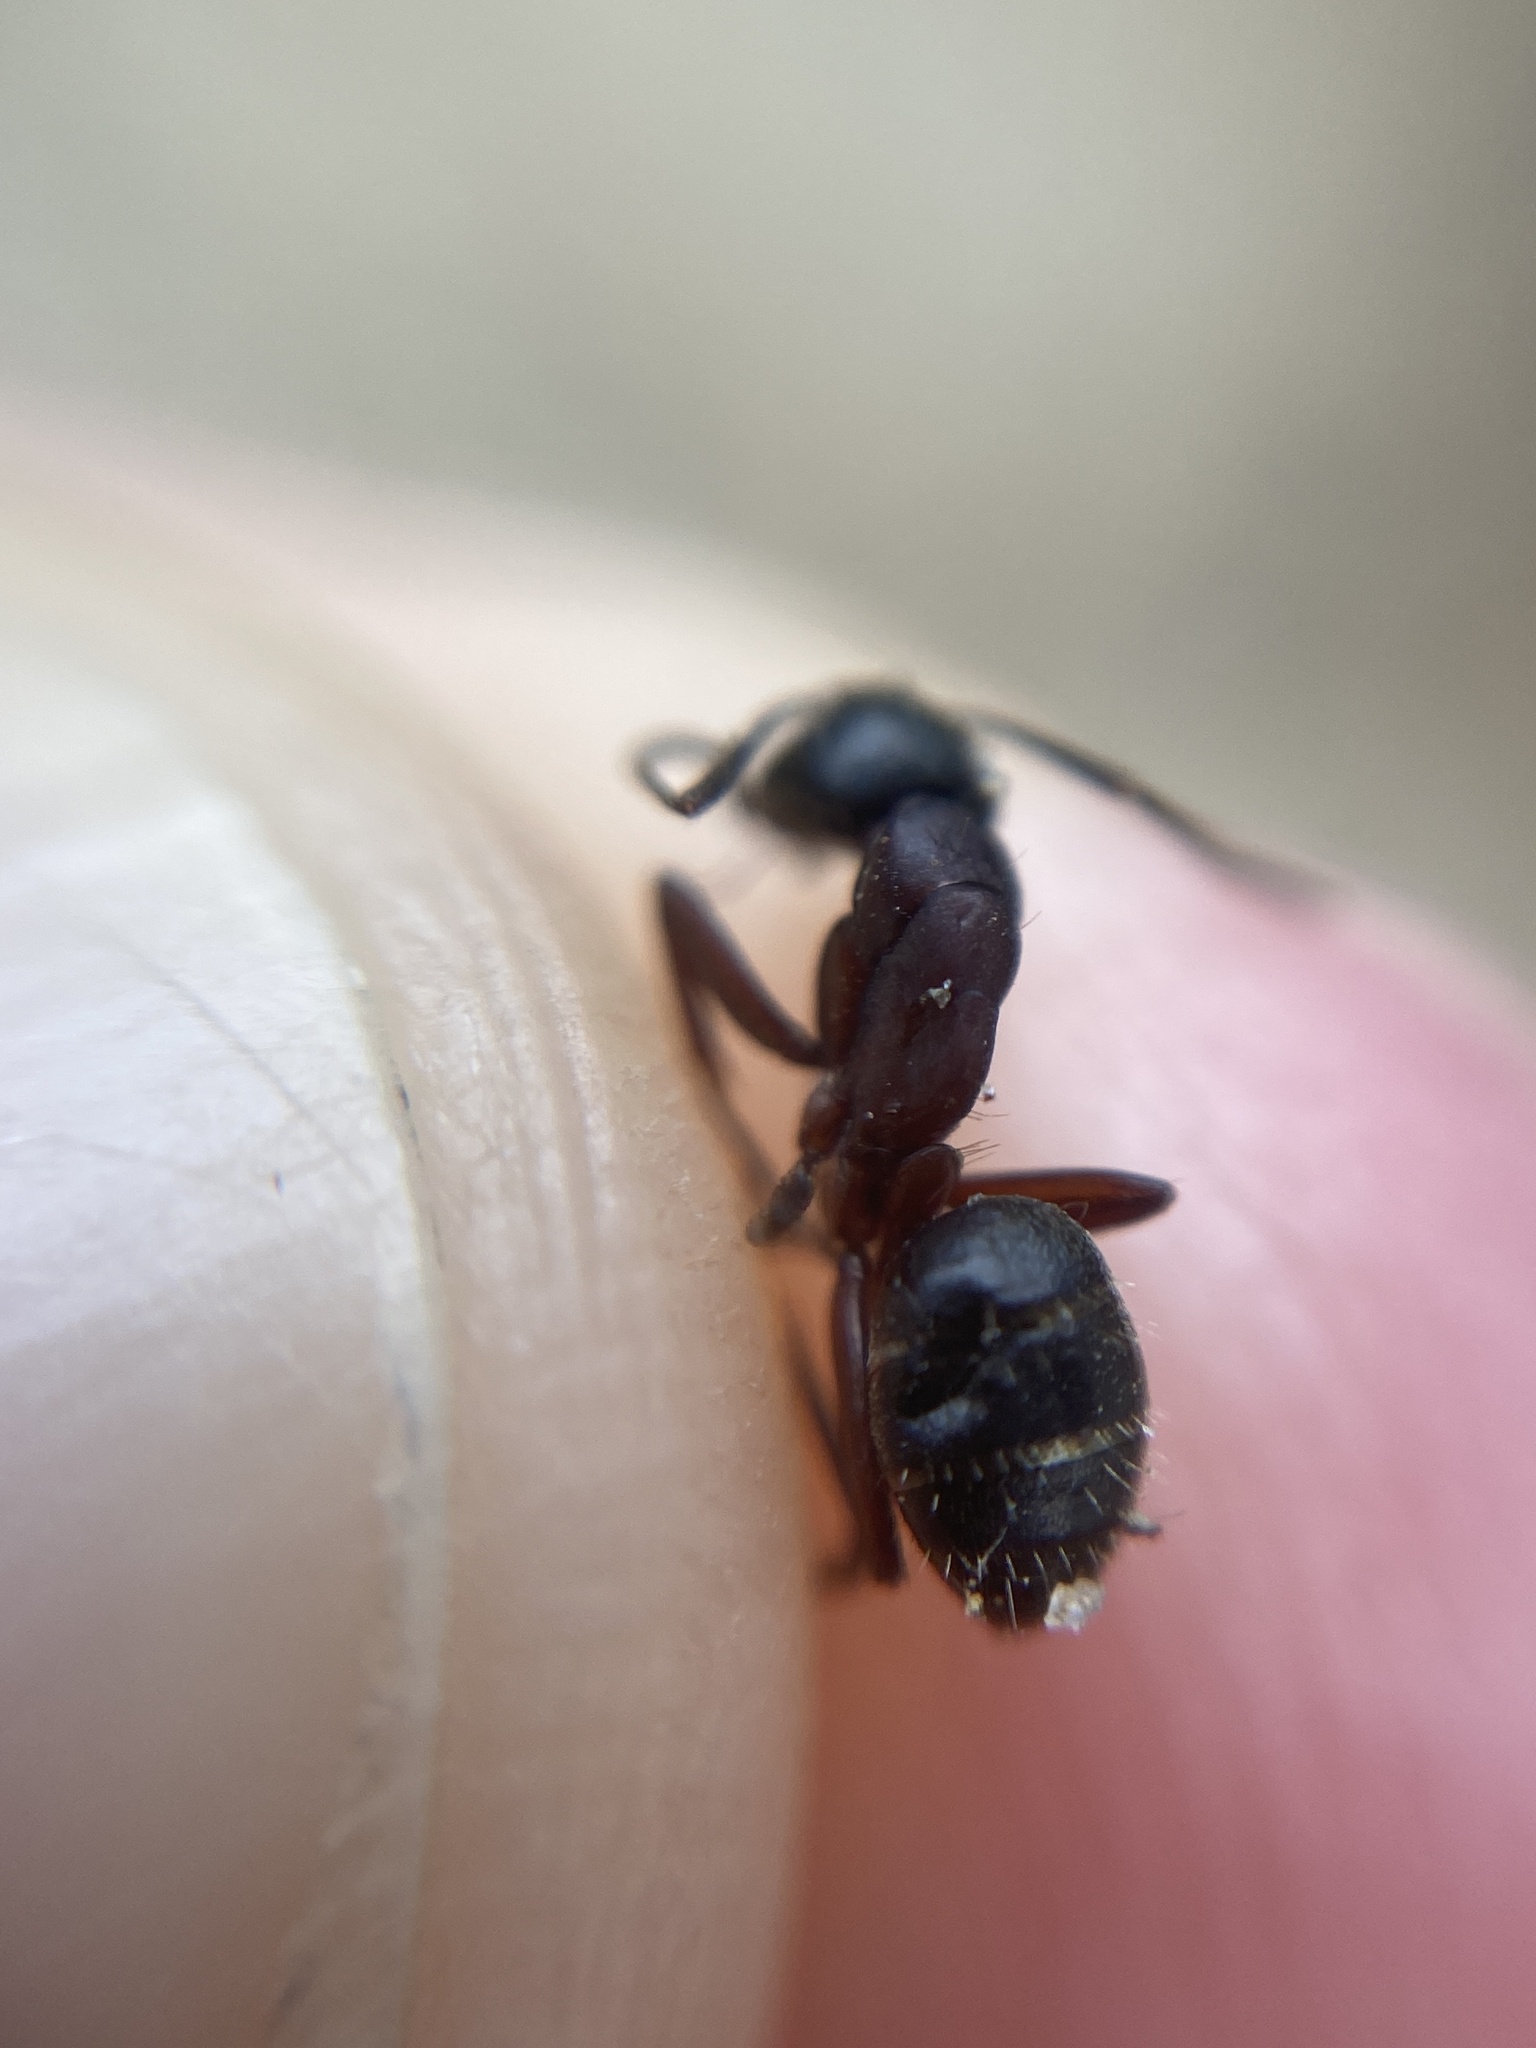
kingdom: Animalia
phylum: Arthropoda
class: Insecta
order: Hymenoptera
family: Formicidae
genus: Camponotus
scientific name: Camponotus herculeanus
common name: Hercules ant
